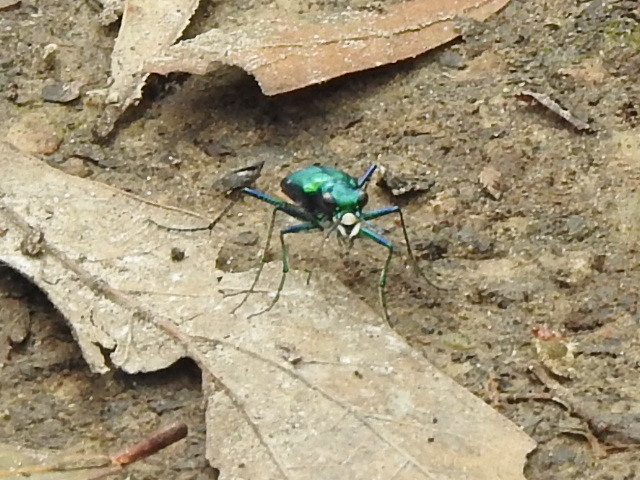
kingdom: Animalia
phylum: Arthropoda
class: Insecta
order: Coleoptera
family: Carabidae
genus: Cicindela
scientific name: Cicindela sexguttata
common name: Six-spotted tiger beetle
